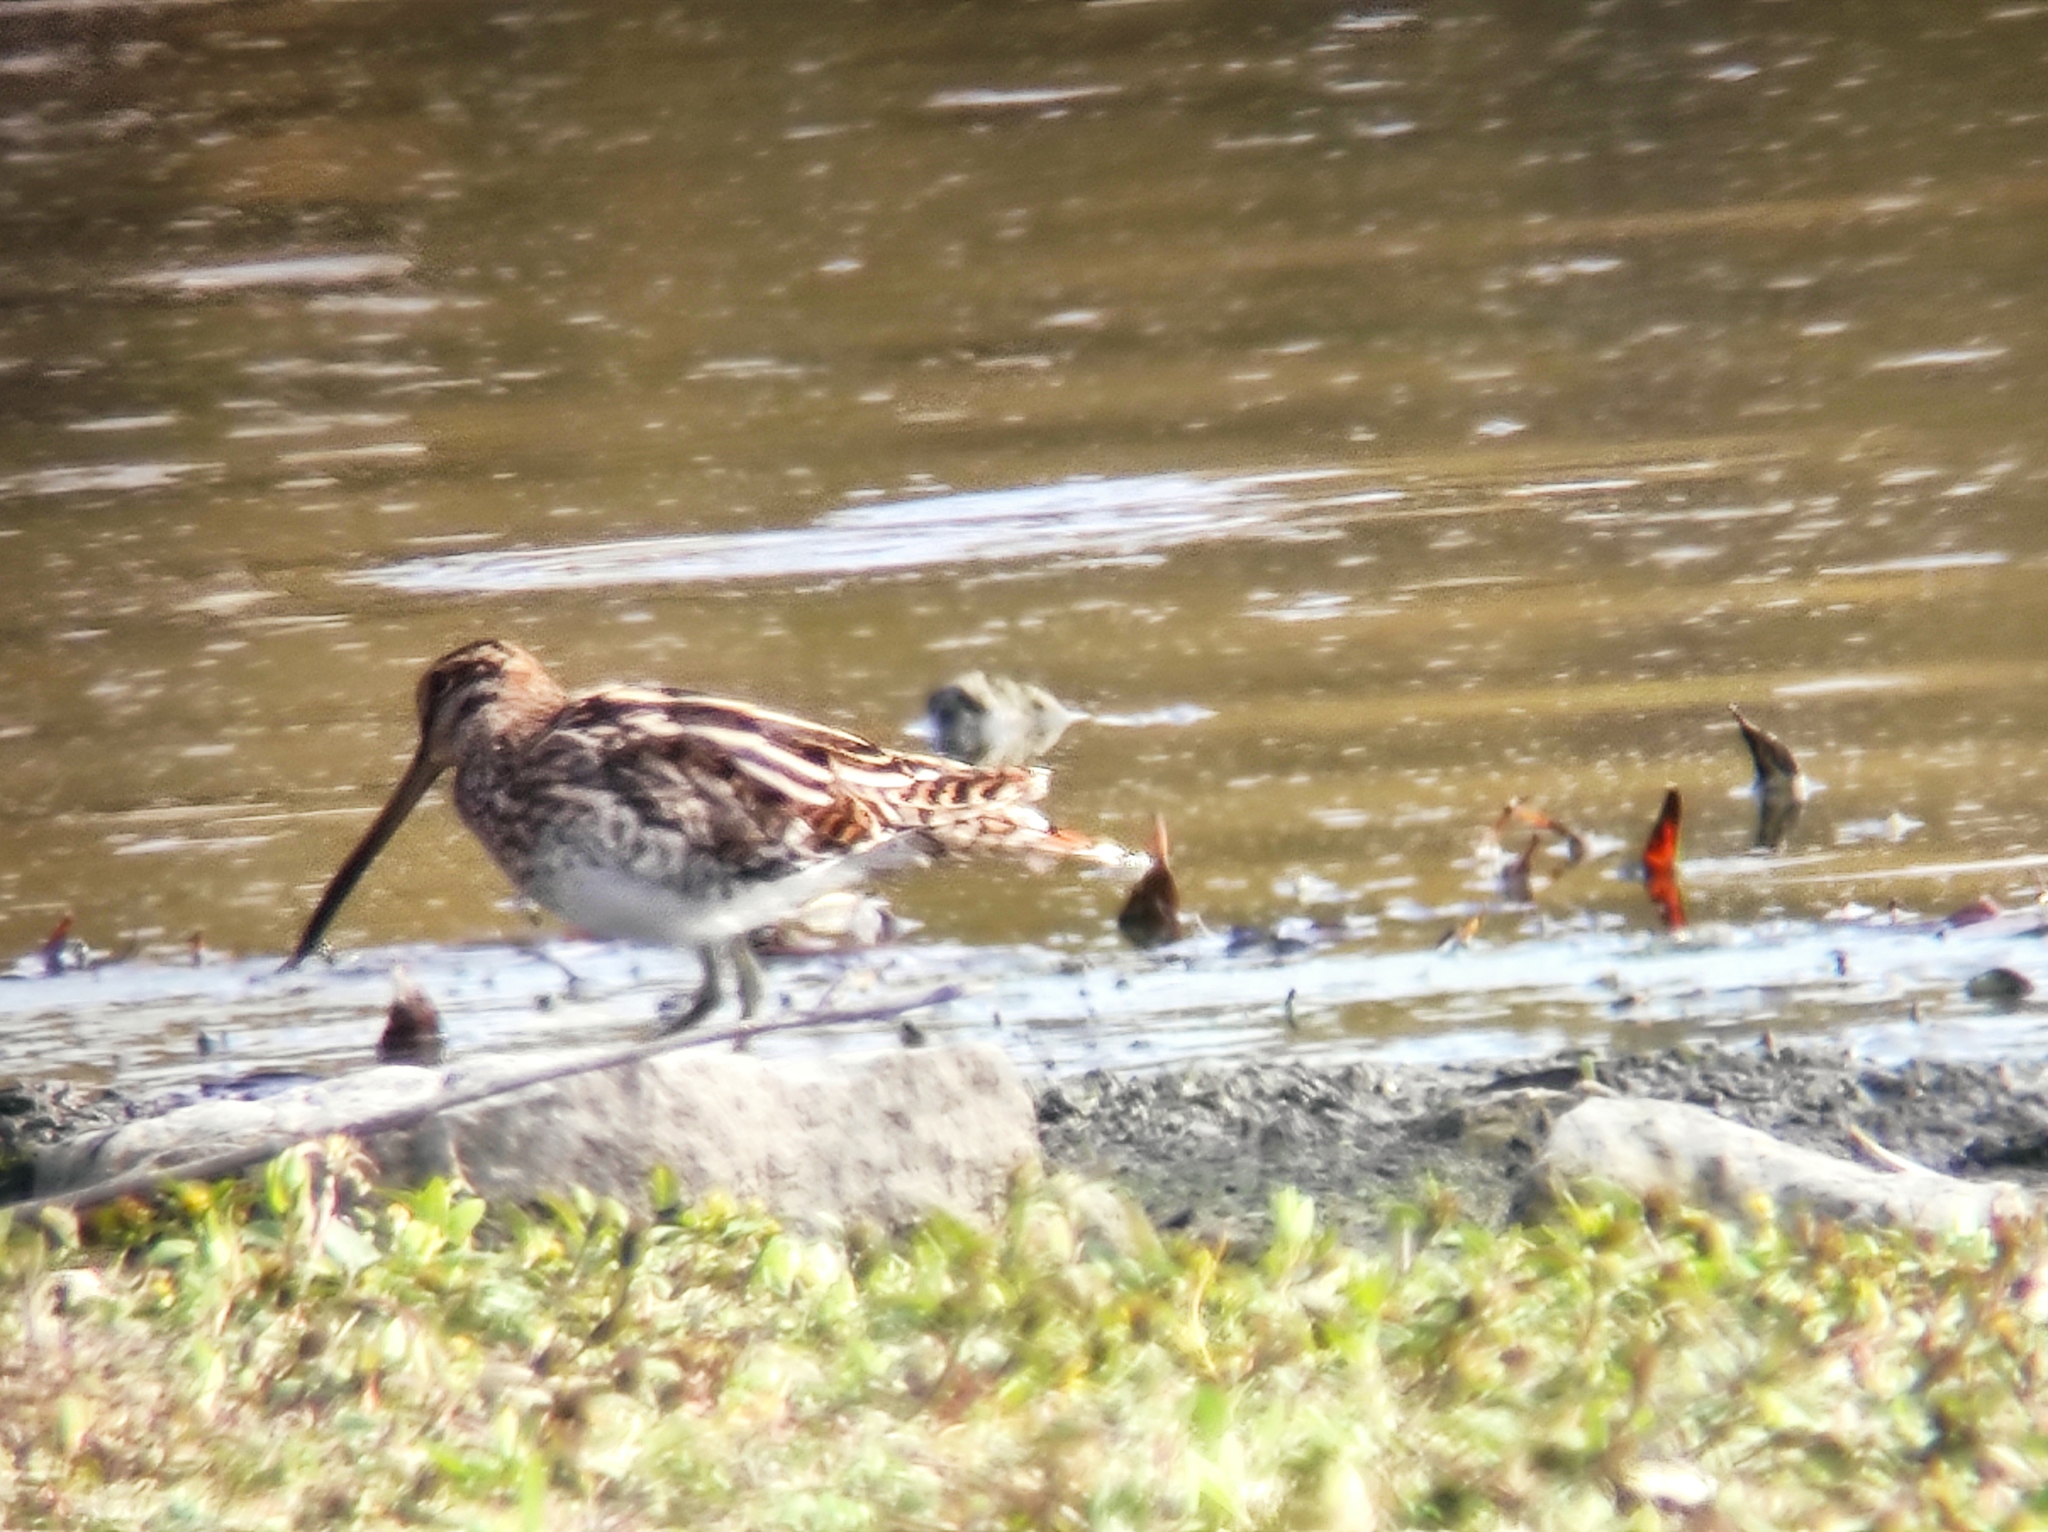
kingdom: Animalia
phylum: Chordata
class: Aves
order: Charadriiformes
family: Scolopacidae
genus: Gallinago
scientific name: Gallinago gallinago
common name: Common snipe
